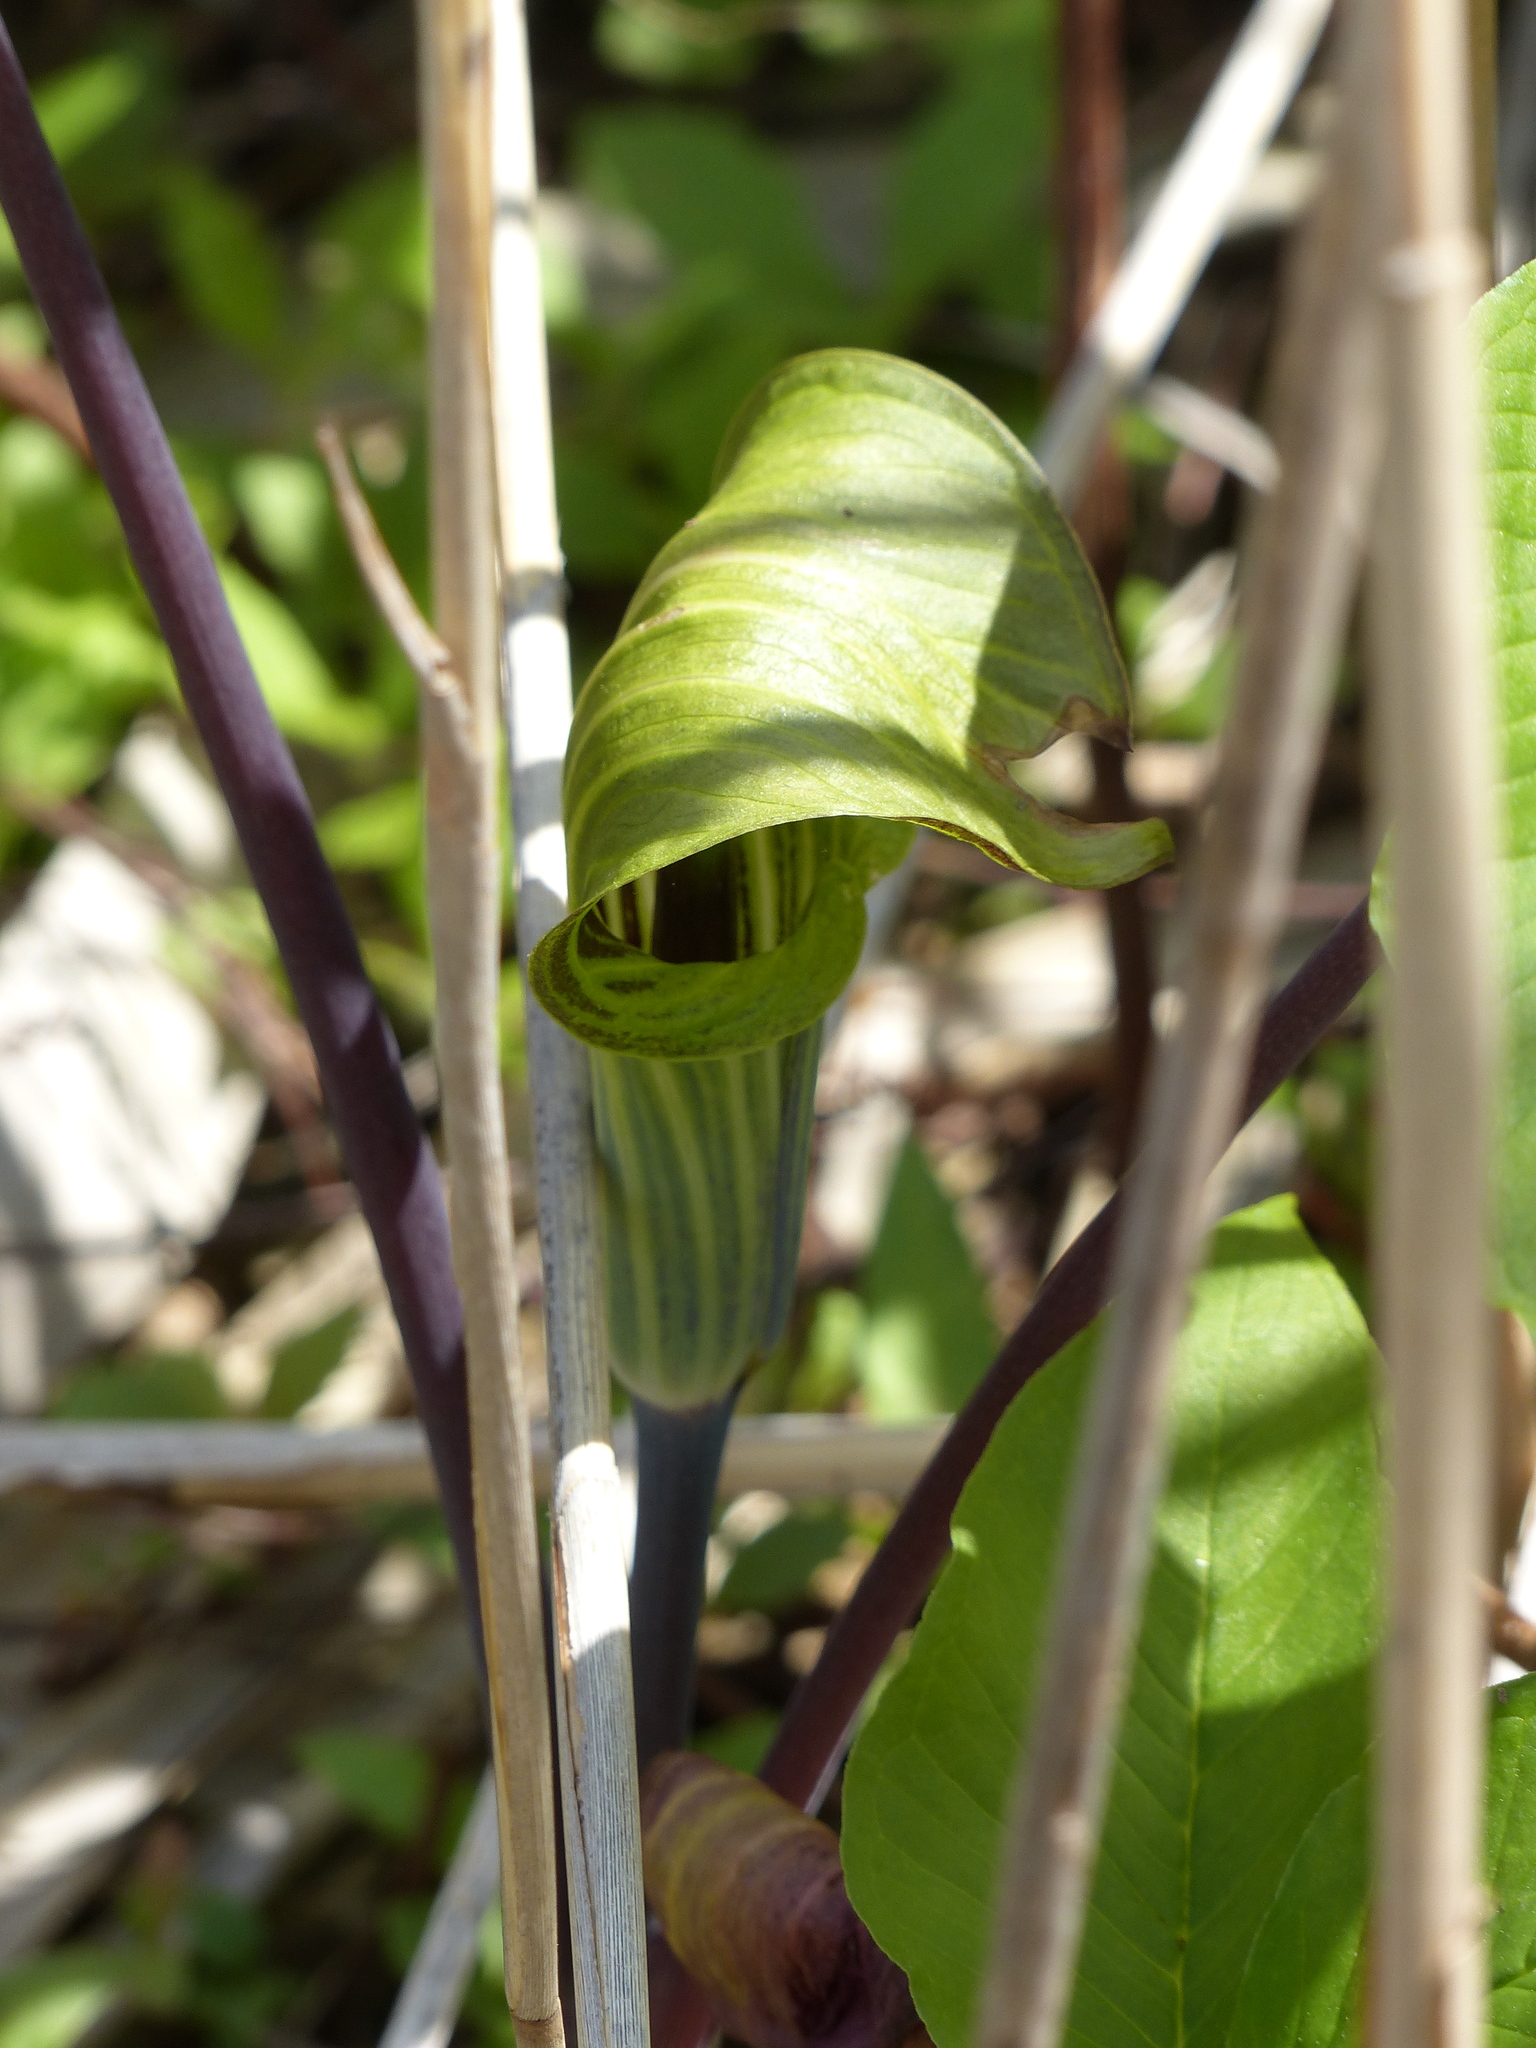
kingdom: Plantae
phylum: Tracheophyta
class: Liliopsida
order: Alismatales
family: Araceae
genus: Arisaema
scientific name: Arisaema triphyllum
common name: Jack-in-the-pulpit
